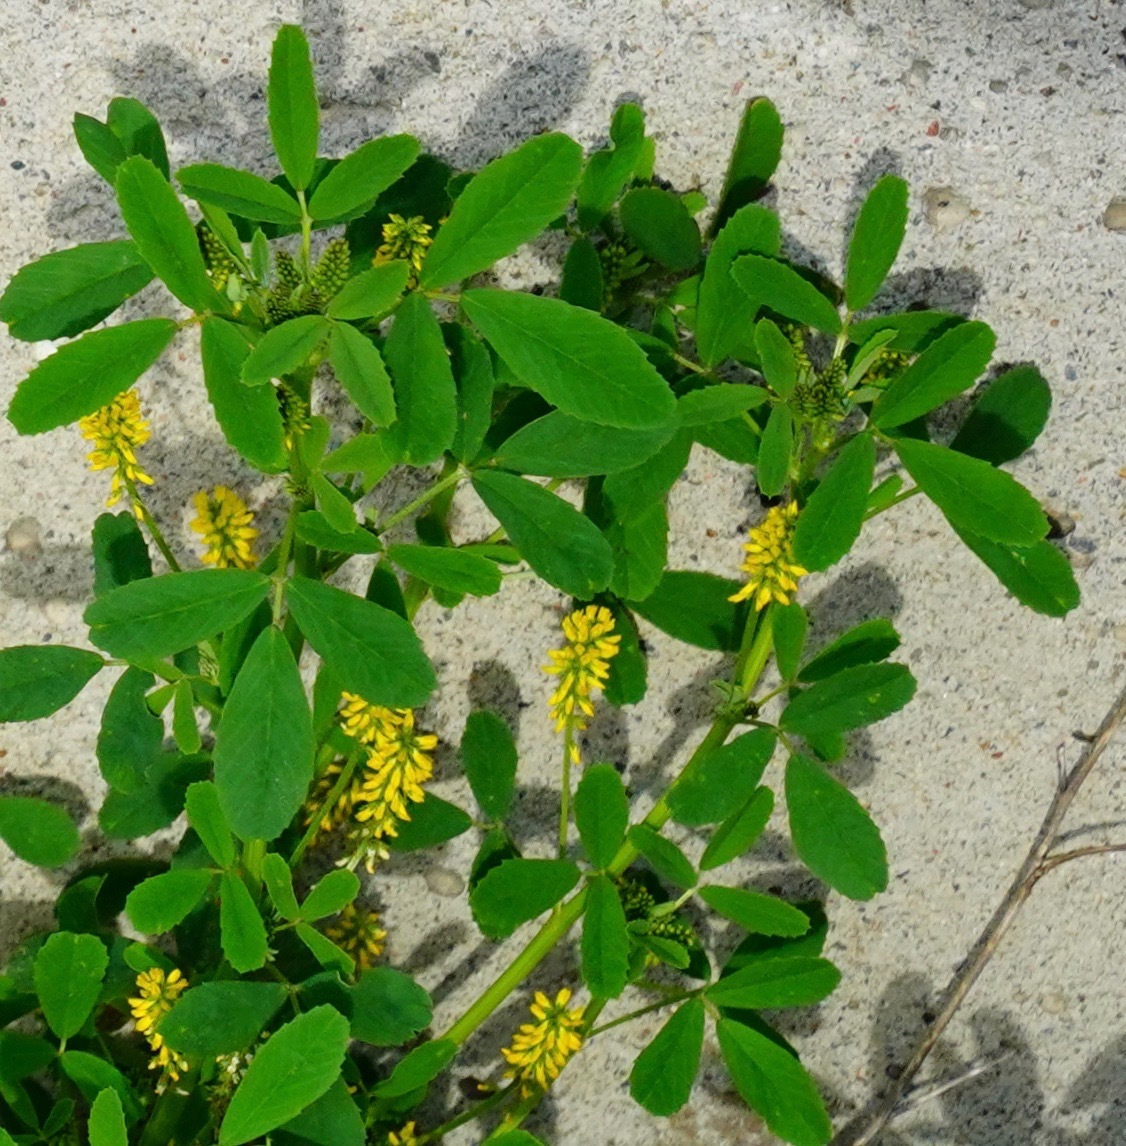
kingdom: Plantae
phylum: Tracheophyta
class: Magnoliopsida
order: Fabales
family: Fabaceae
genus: Melilotus
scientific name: Melilotus indicus
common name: Small melilot
